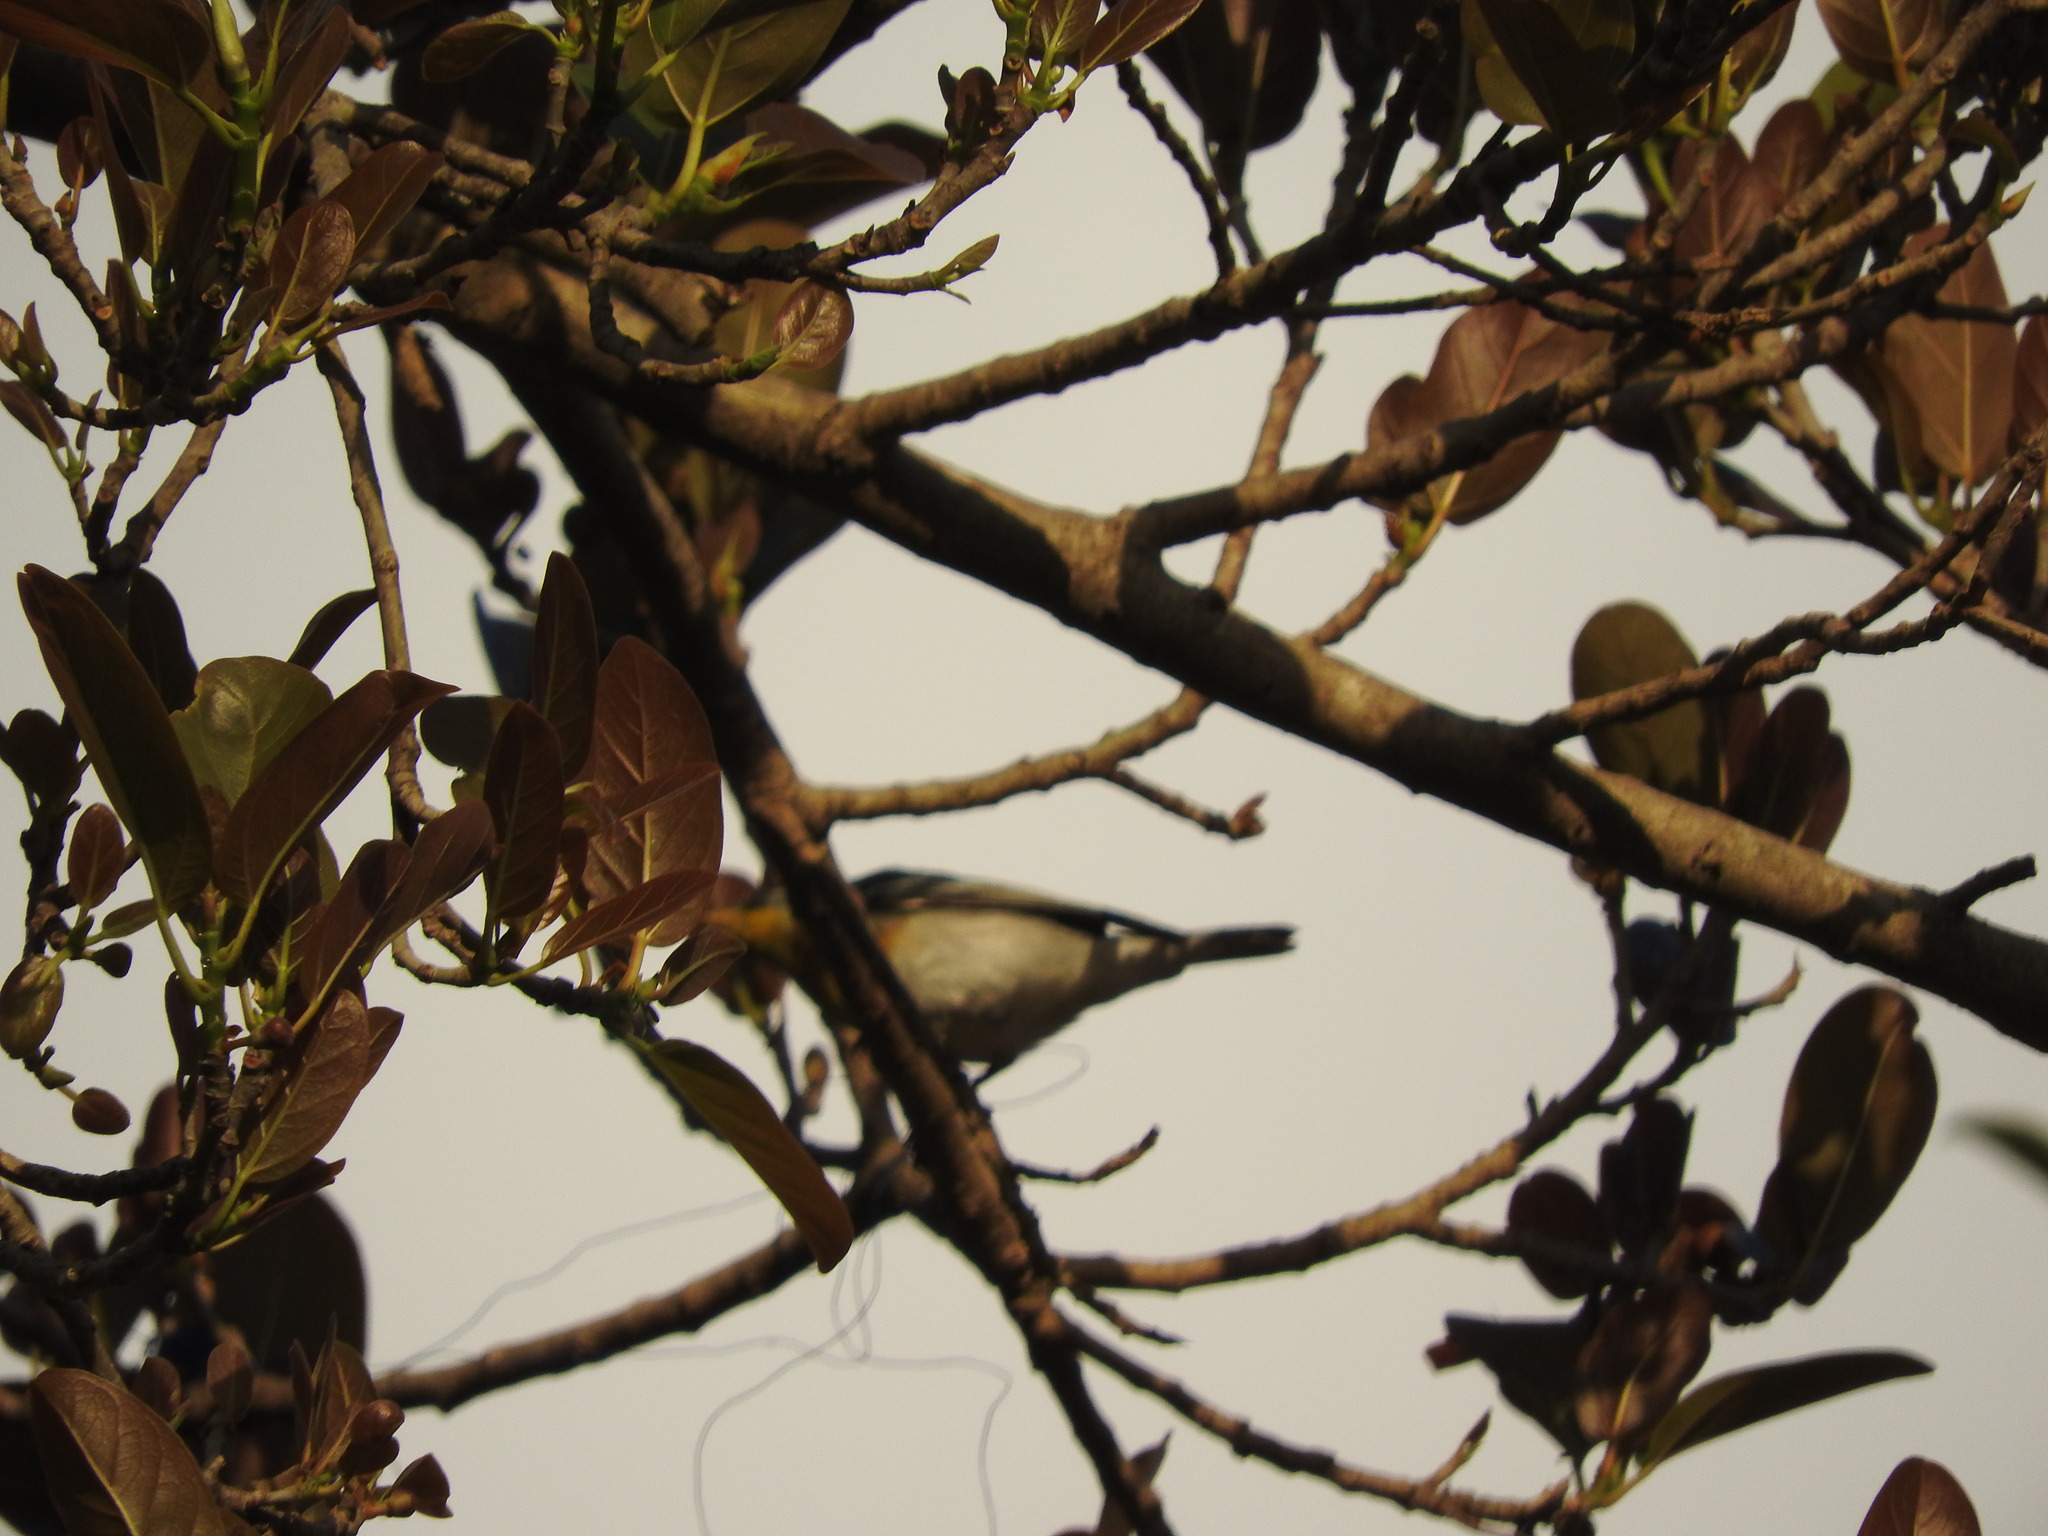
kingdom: Animalia
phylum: Chordata
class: Aves
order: Passeriformes
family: Parulidae
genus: Setophaga
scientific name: Setophaga americana
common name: Northern parula
